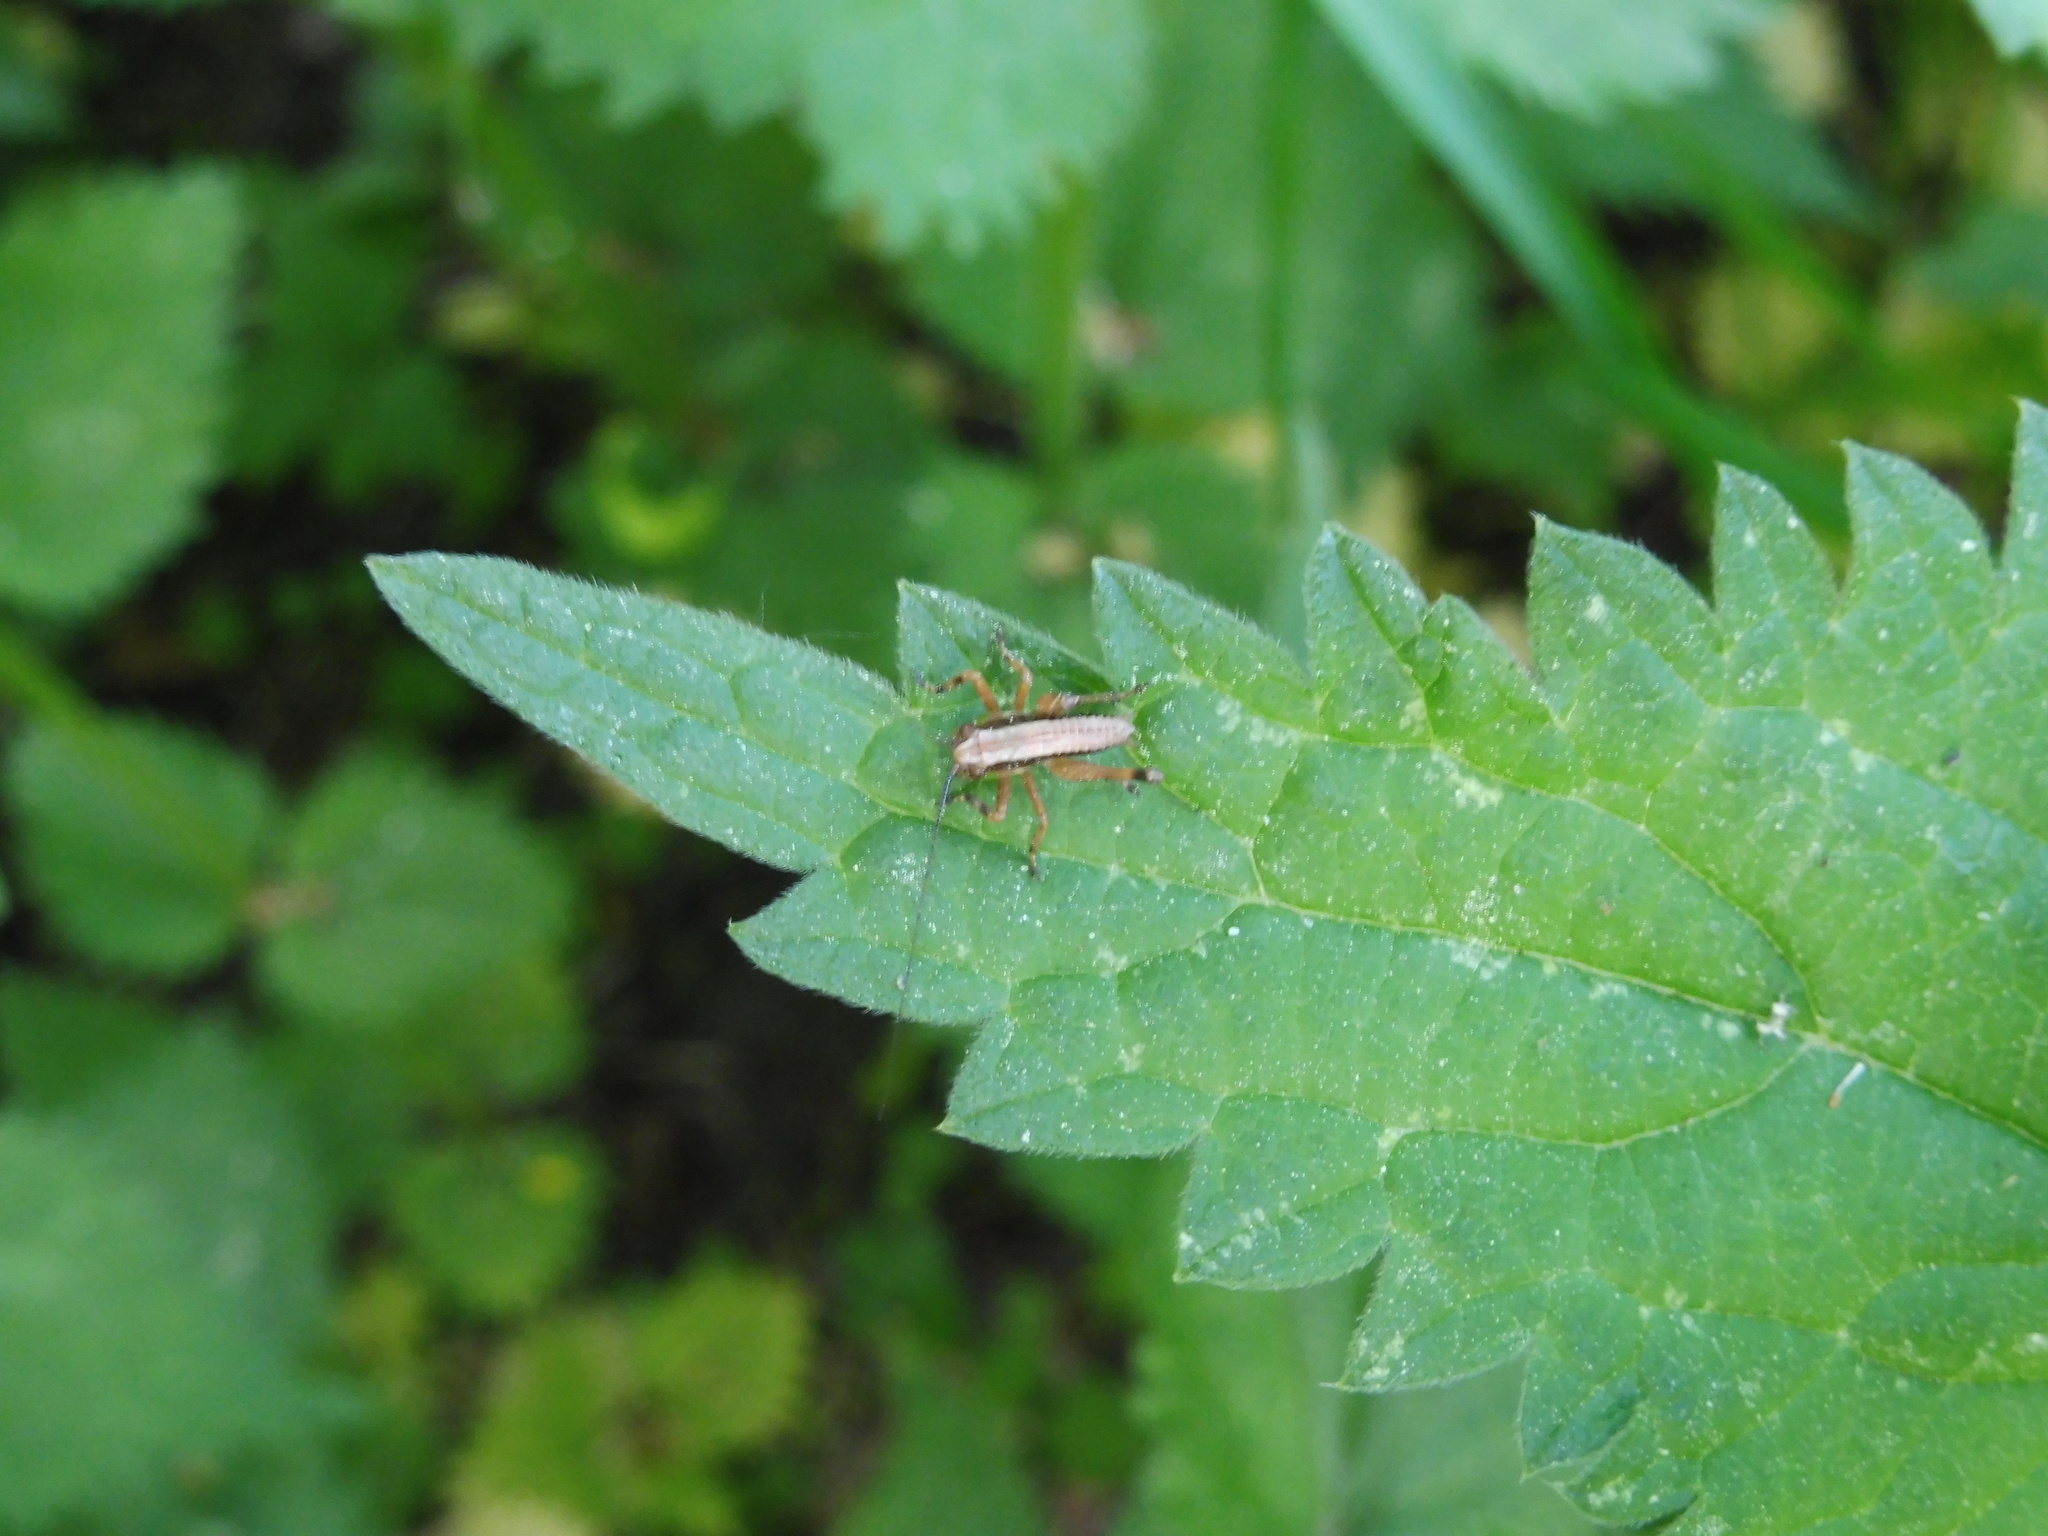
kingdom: Animalia
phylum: Arthropoda
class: Insecta
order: Orthoptera
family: Tettigoniidae
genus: Pholidoptera
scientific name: Pholidoptera griseoaptera
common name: Dark bush-cricket
